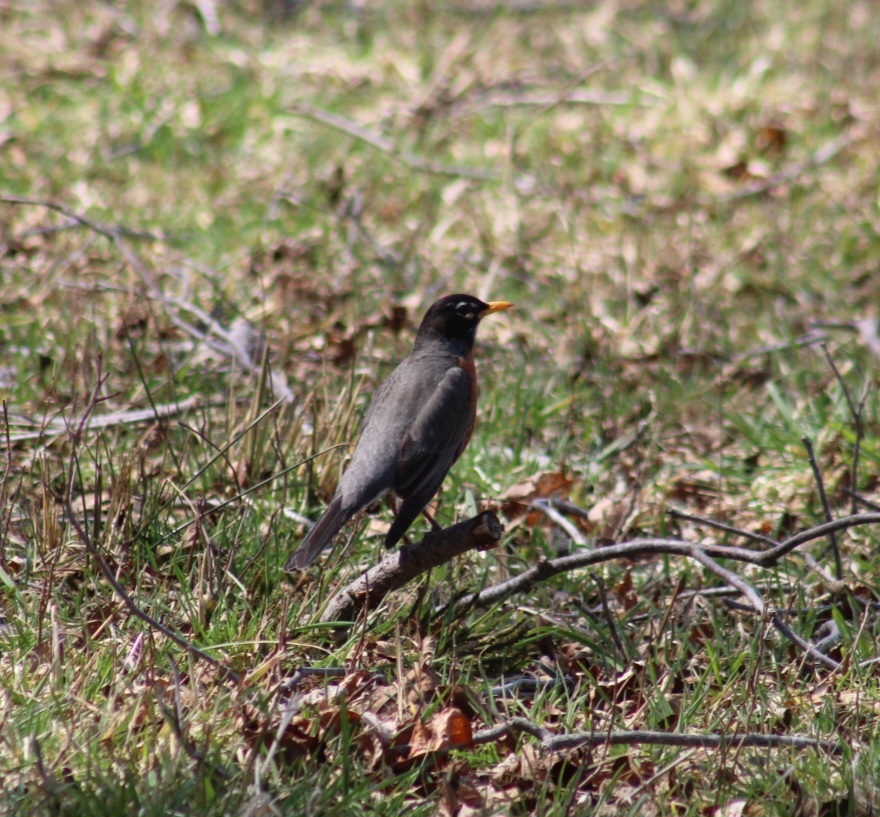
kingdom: Animalia
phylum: Chordata
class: Aves
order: Passeriformes
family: Turdidae
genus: Turdus
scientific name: Turdus migratorius
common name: American robin
